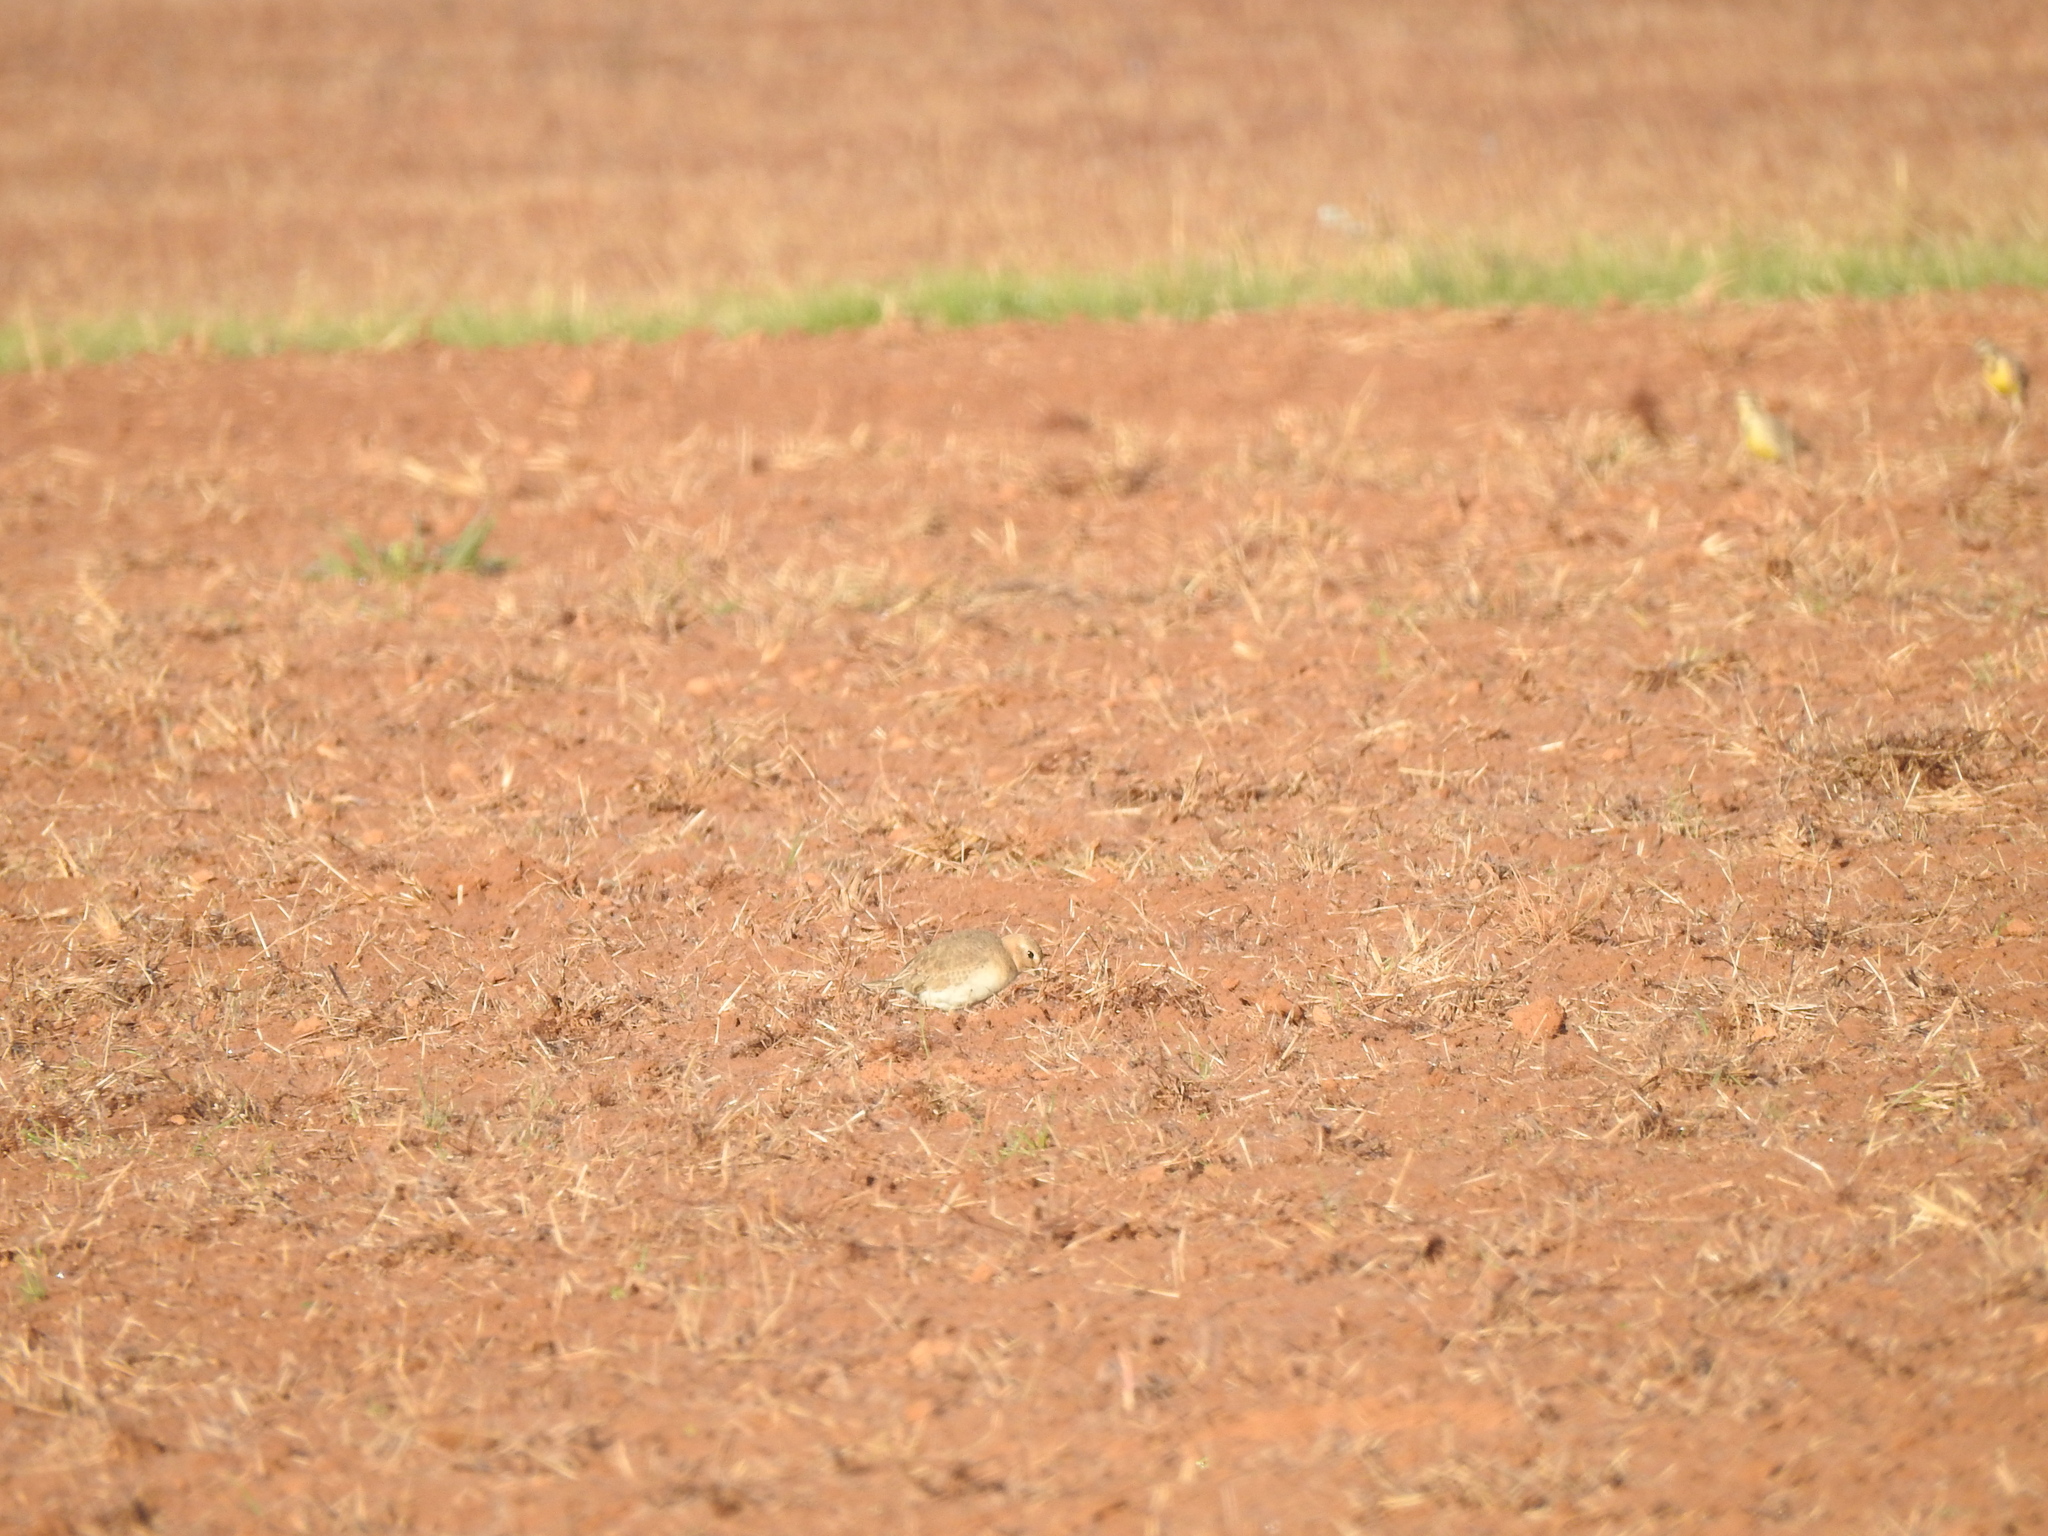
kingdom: Animalia
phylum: Chordata
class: Aves
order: Charadriiformes
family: Charadriidae
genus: Anarhynchus
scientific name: Anarhynchus
